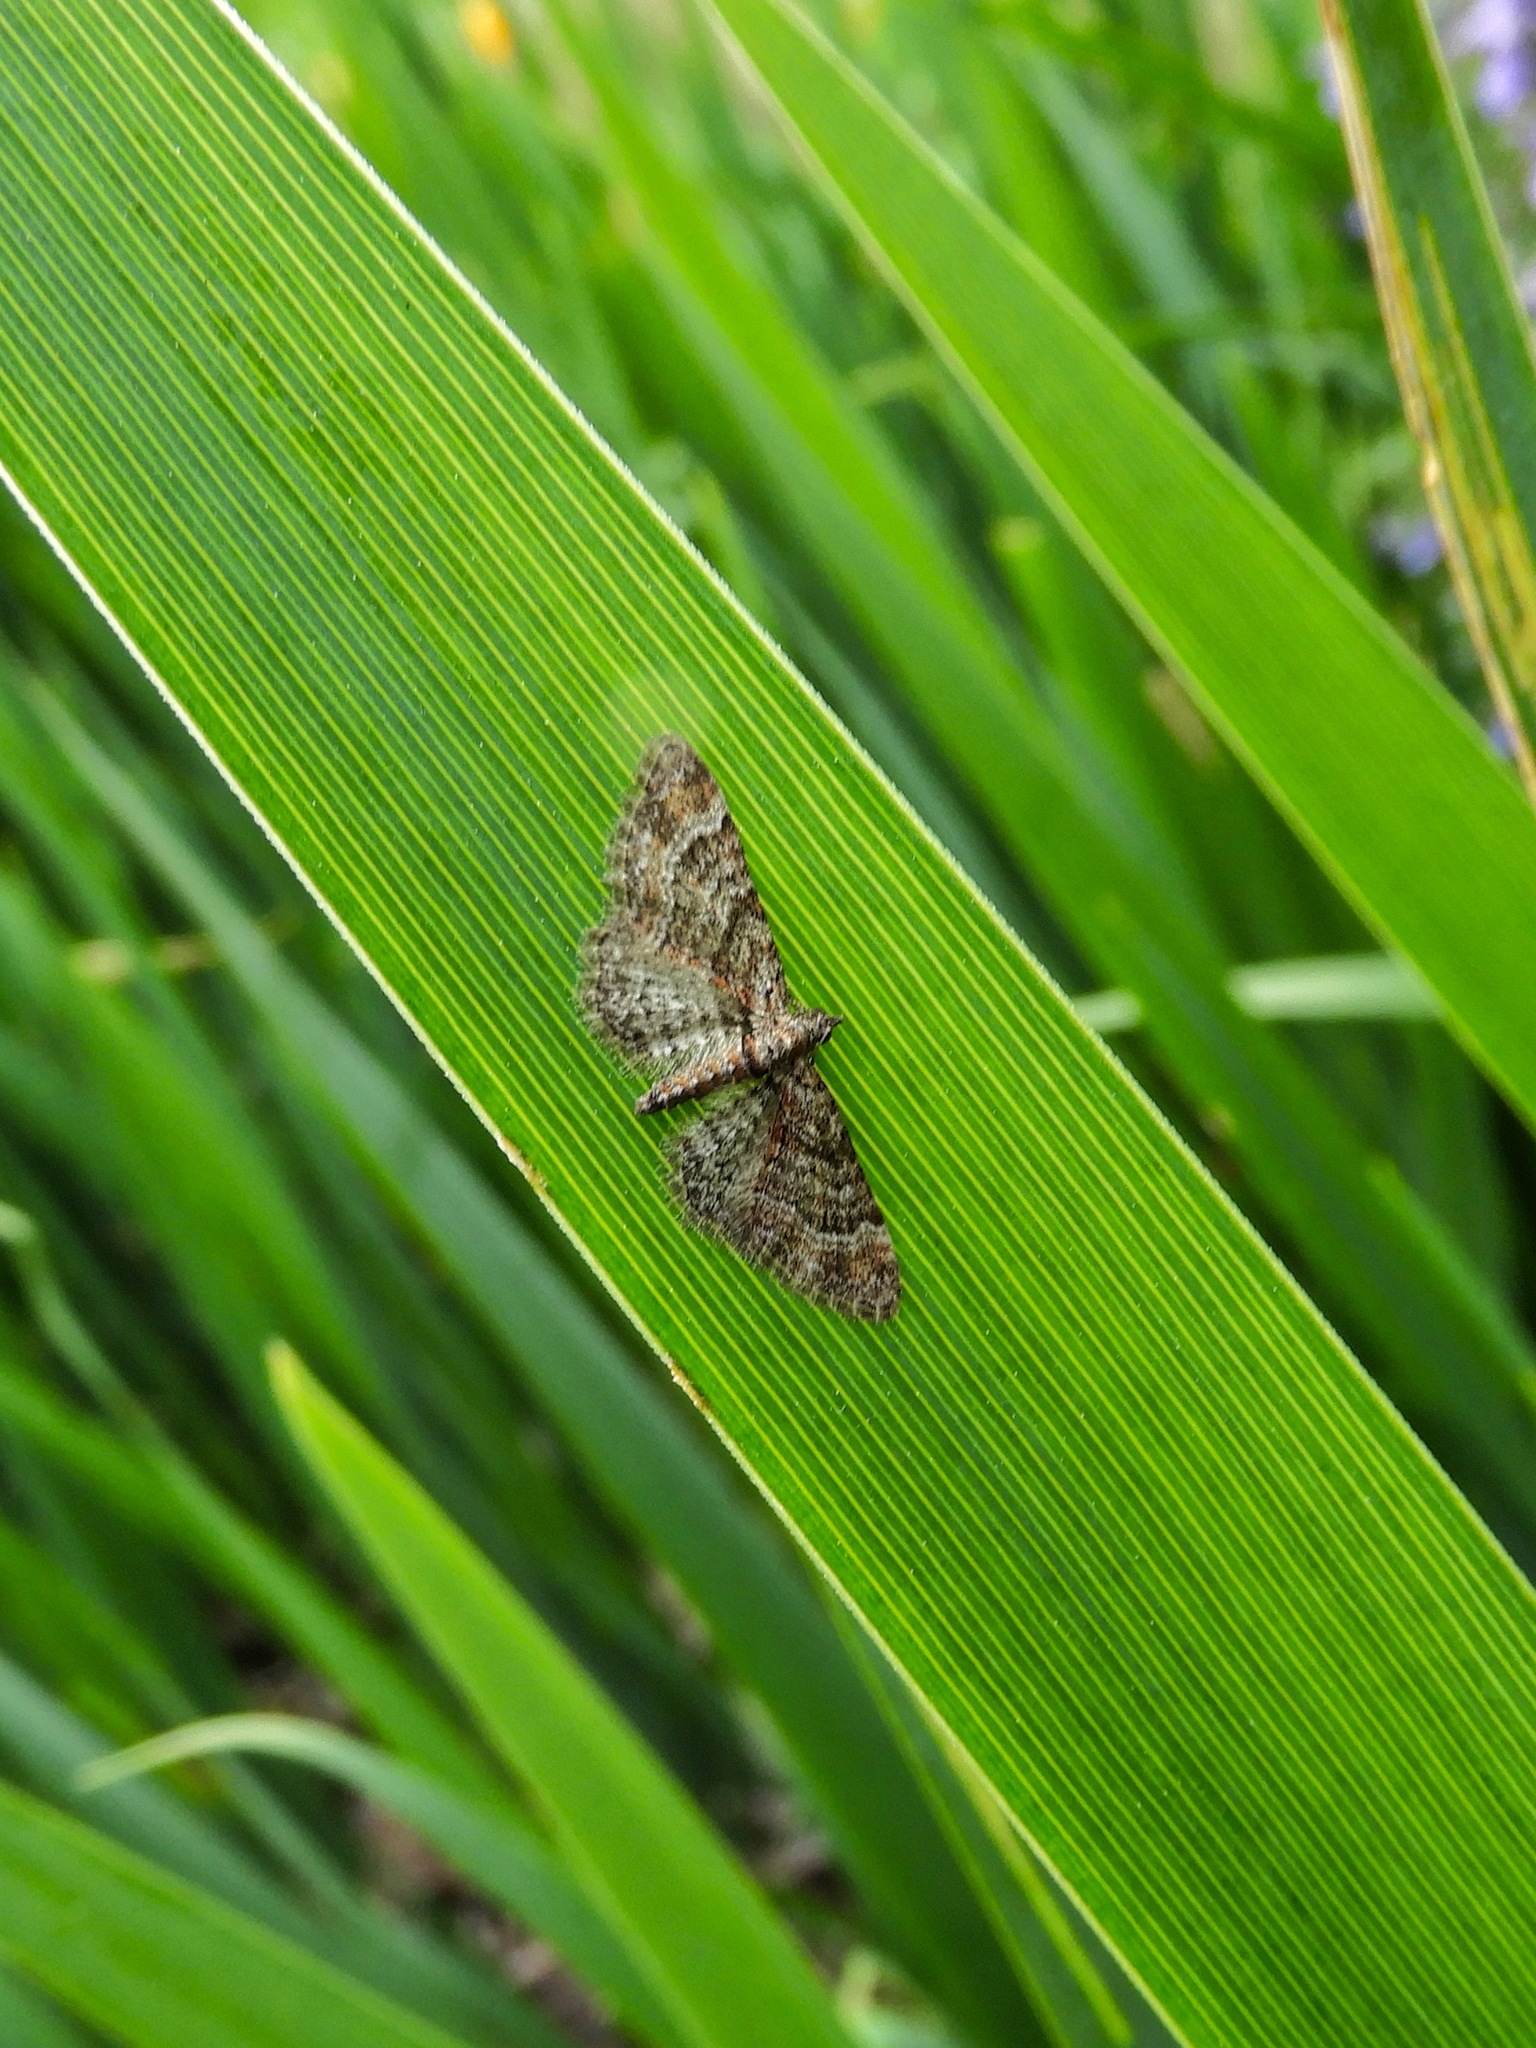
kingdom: Animalia
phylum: Arthropoda
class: Insecta
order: Lepidoptera
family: Geometridae
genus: Gymnoscelis
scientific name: Gymnoscelis rufifasciata
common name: Double-striped pug
